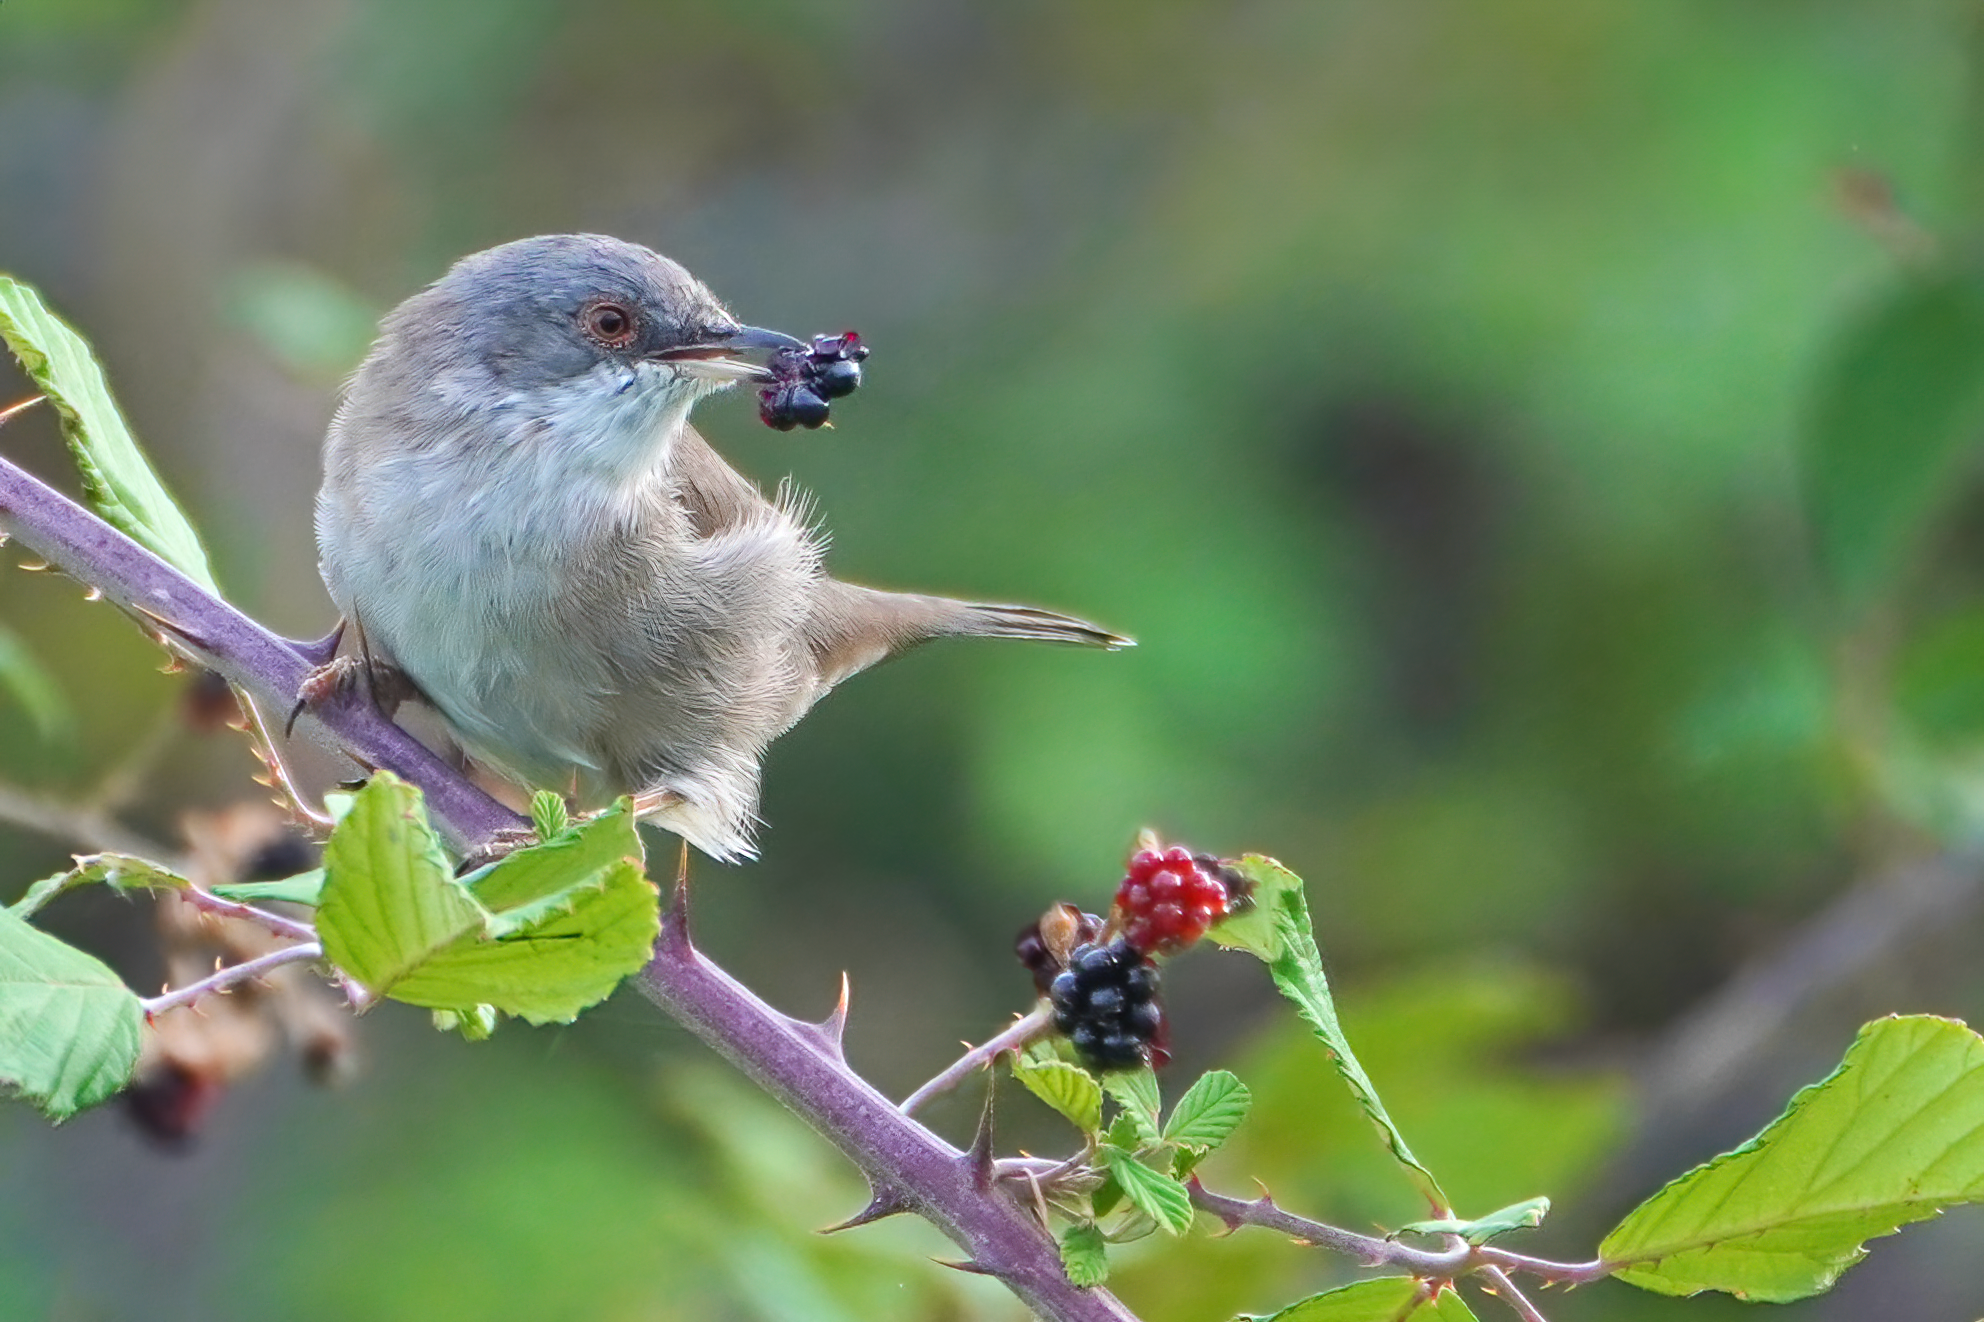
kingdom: Animalia
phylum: Chordata
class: Aves
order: Passeriformes
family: Sylviidae
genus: Curruca
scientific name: Curruca melanocephala
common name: Sardinian warbler
